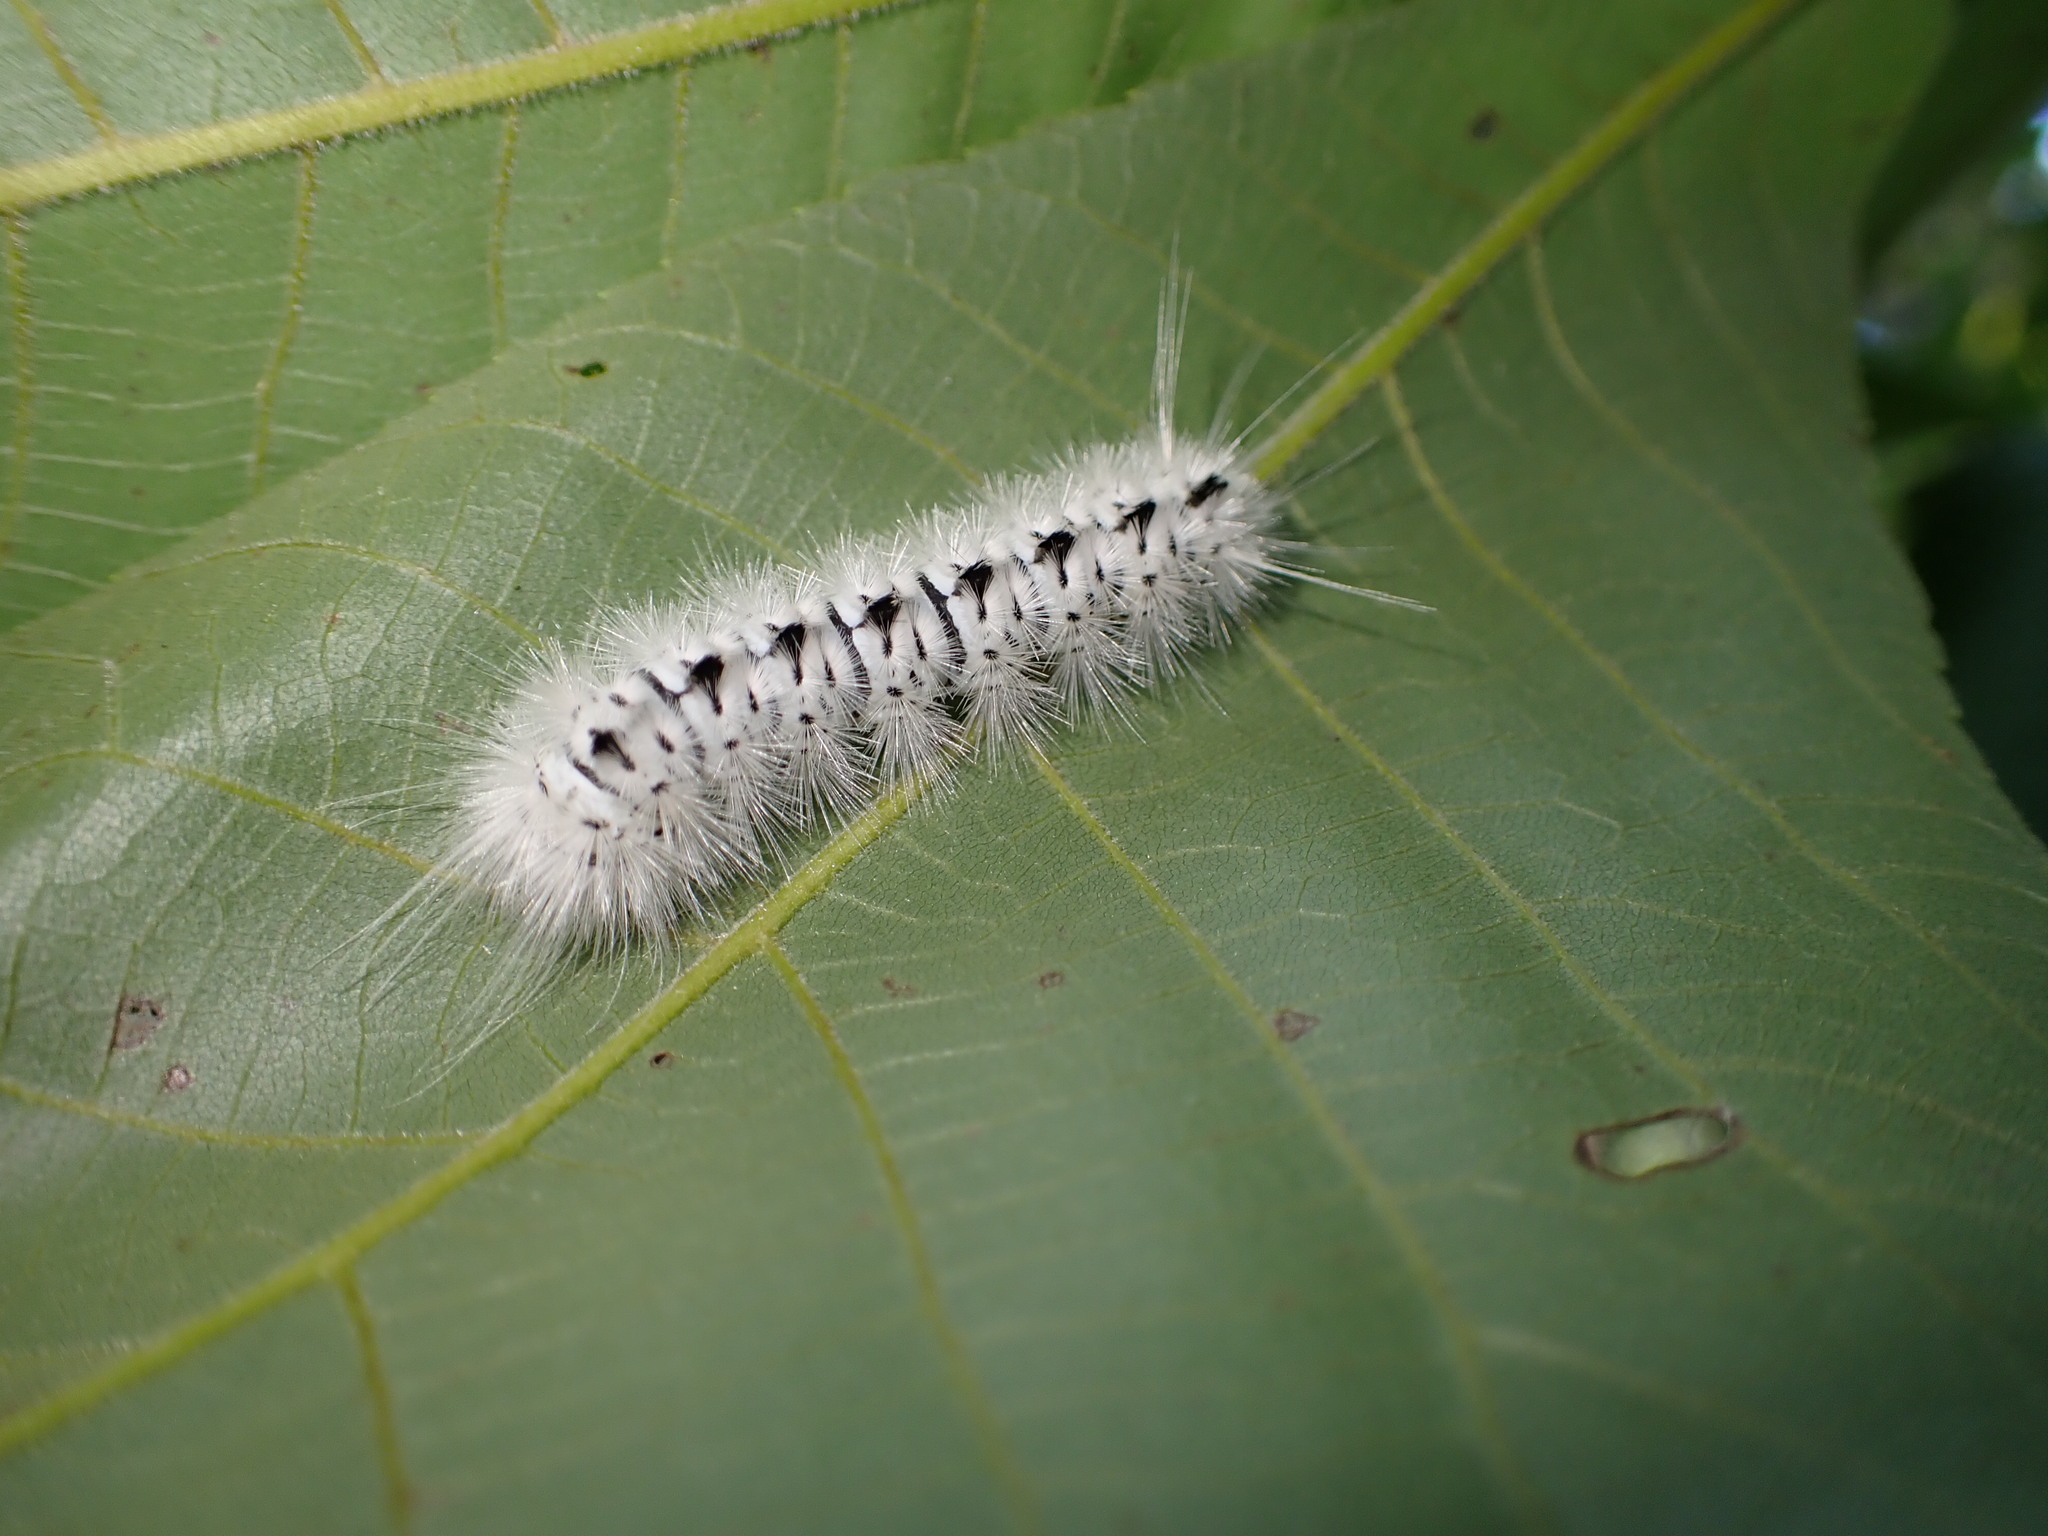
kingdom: Animalia
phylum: Arthropoda
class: Insecta
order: Lepidoptera
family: Erebidae
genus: Lophocampa
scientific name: Lophocampa caryae
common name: Hickory tussock moth
